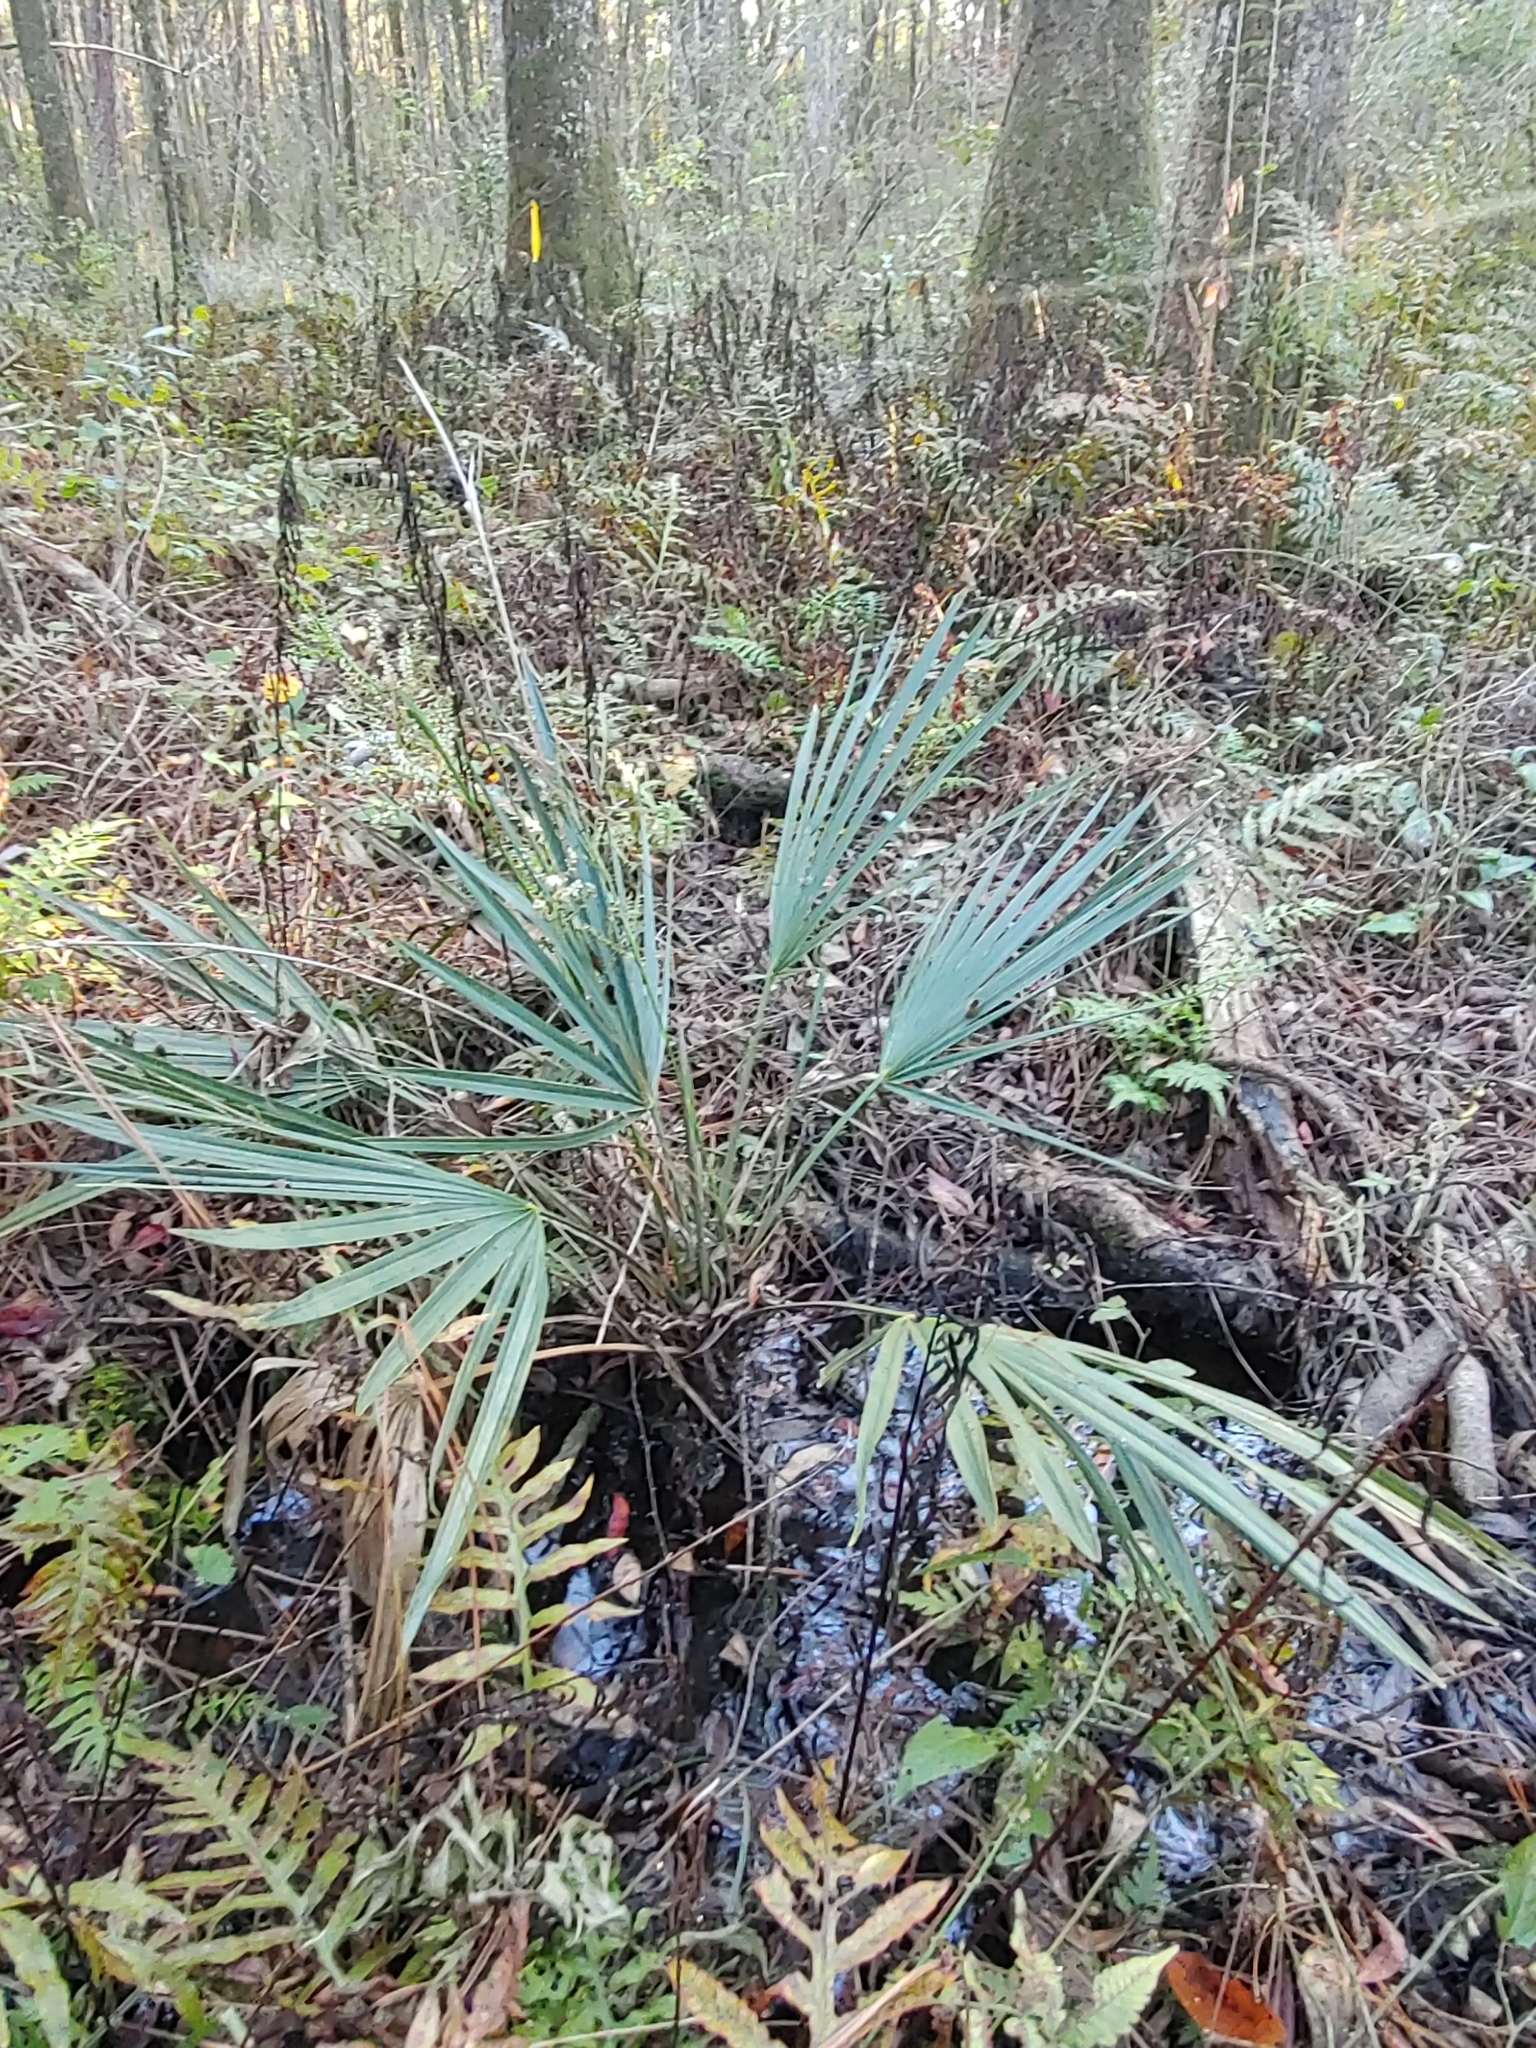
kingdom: Plantae
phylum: Tracheophyta
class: Liliopsida
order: Arecales
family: Arecaceae
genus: Sabal
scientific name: Sabal minor
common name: Dwarf palmetto
